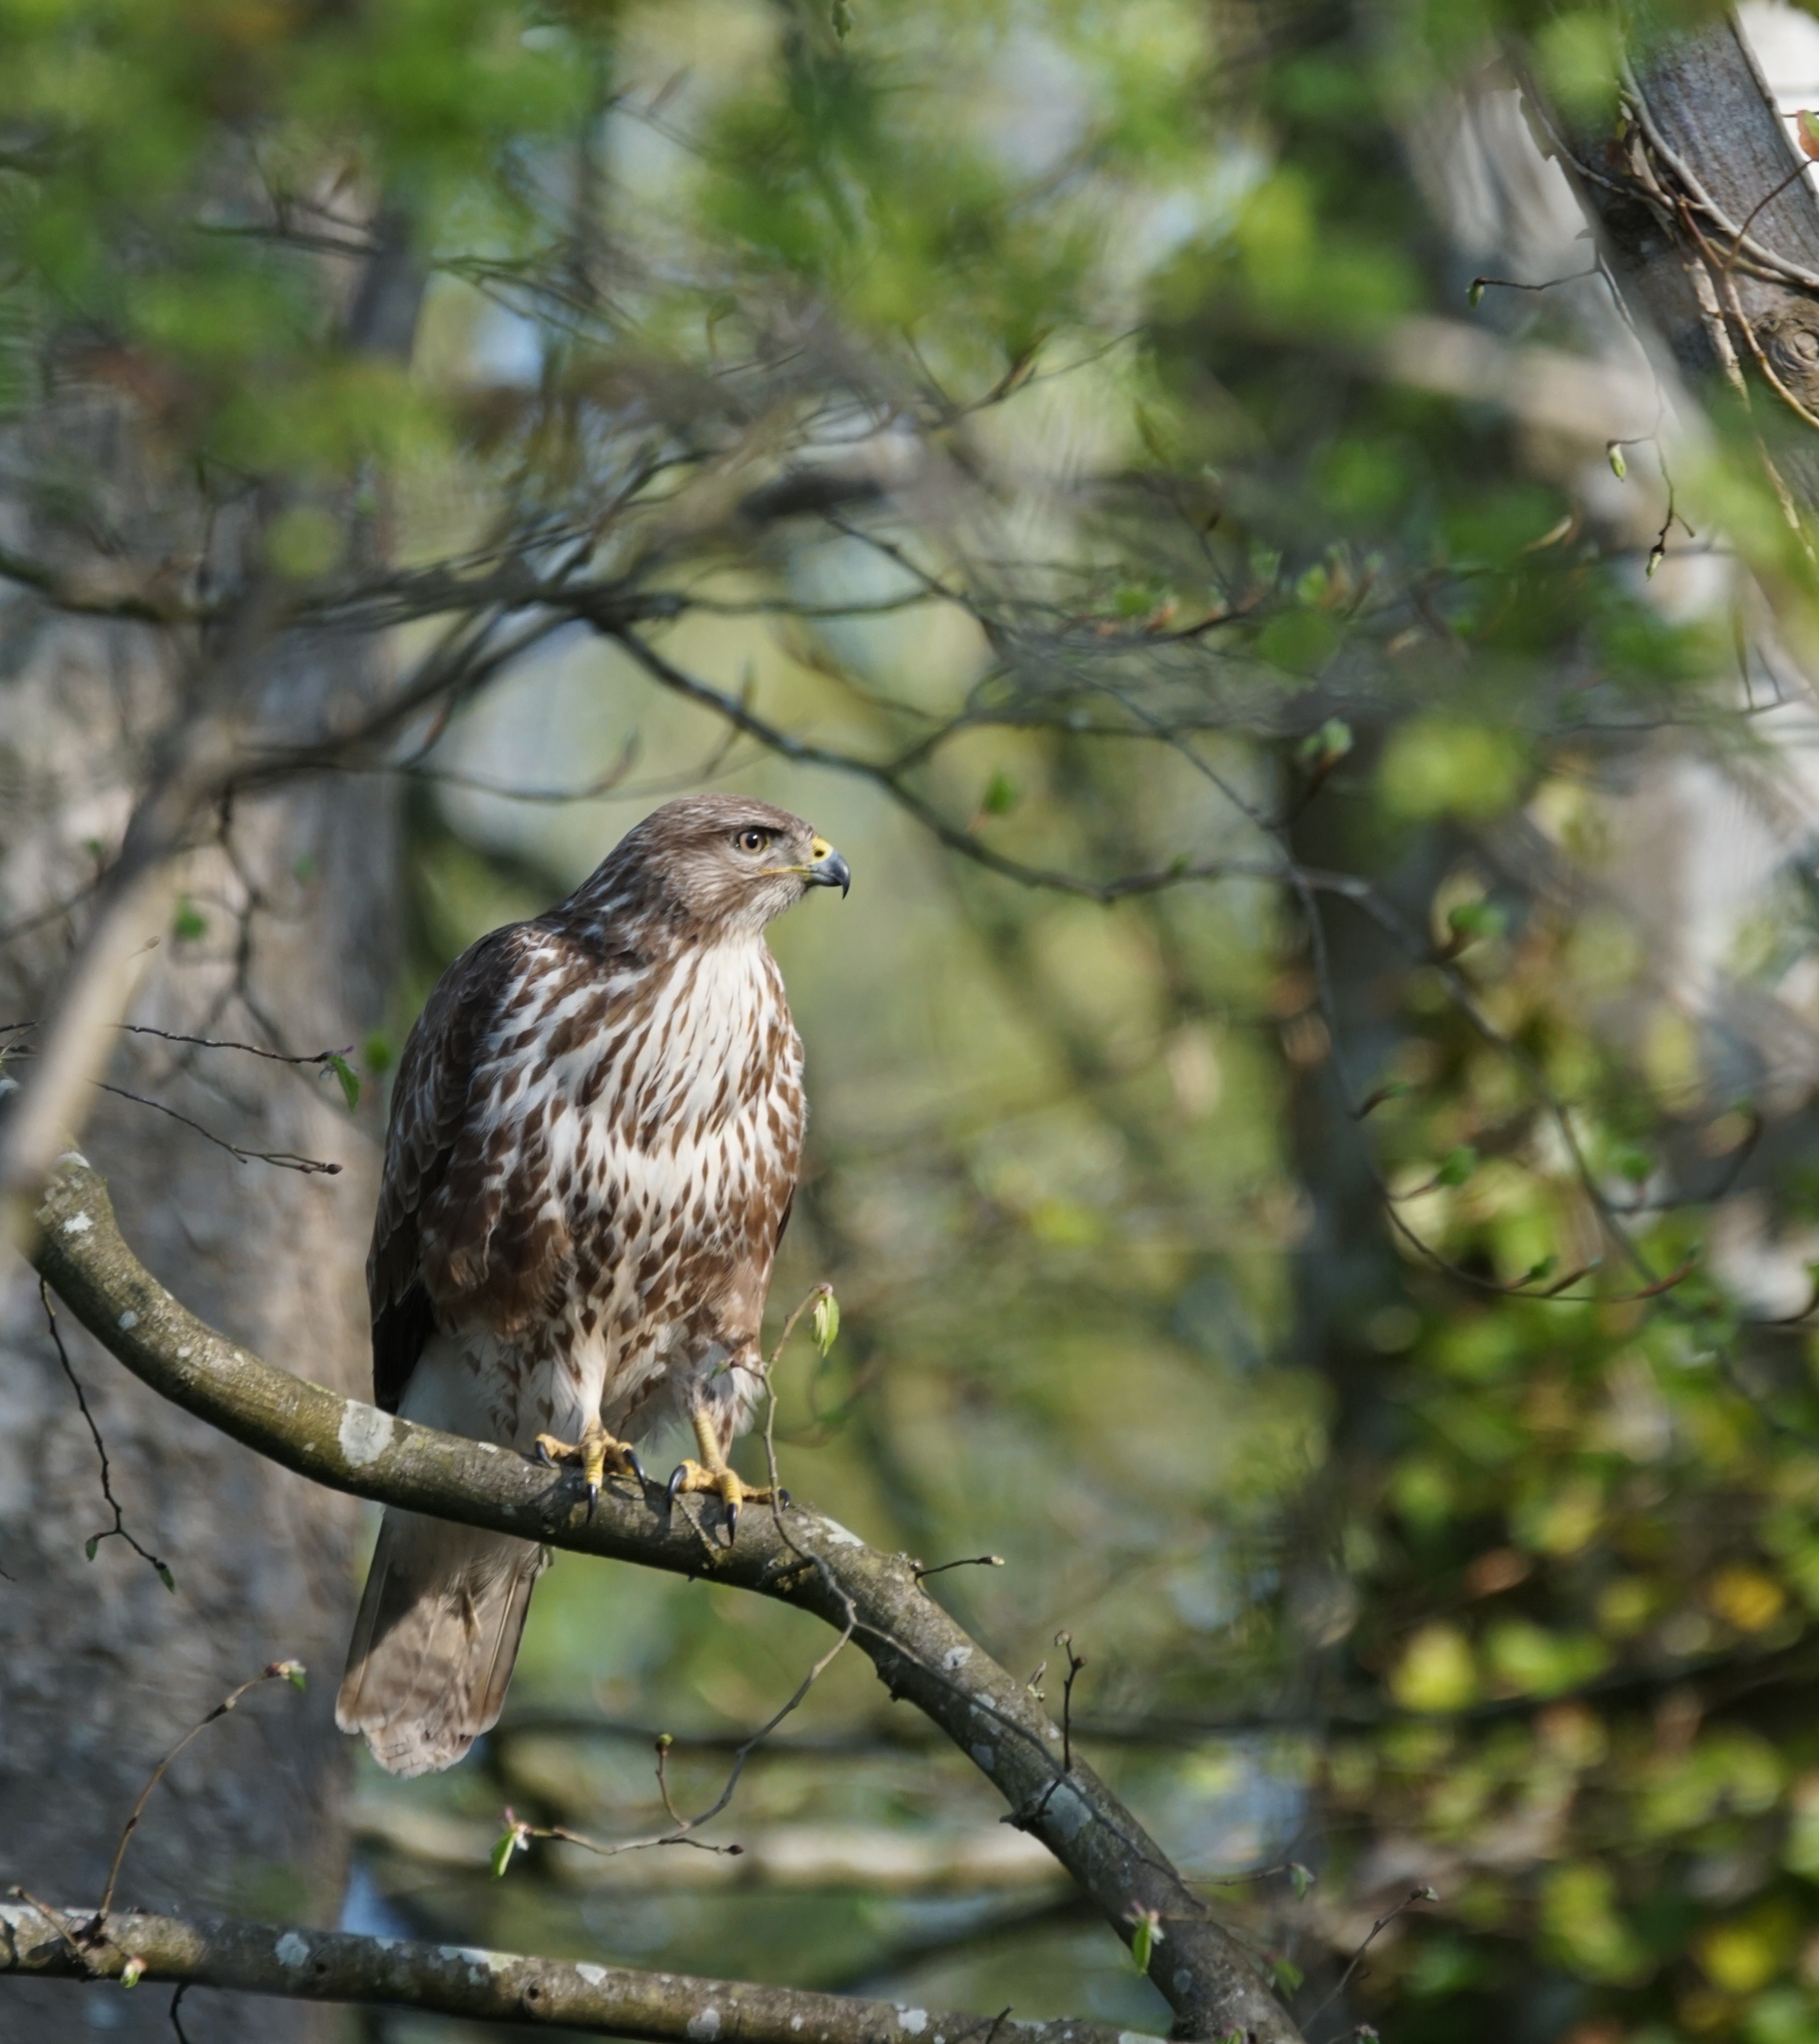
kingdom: Animalia
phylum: Chordata
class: Aves
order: Accipitriformes
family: Accipitridae
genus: Buteo
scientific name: Buteo buteo
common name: Common buzzard
